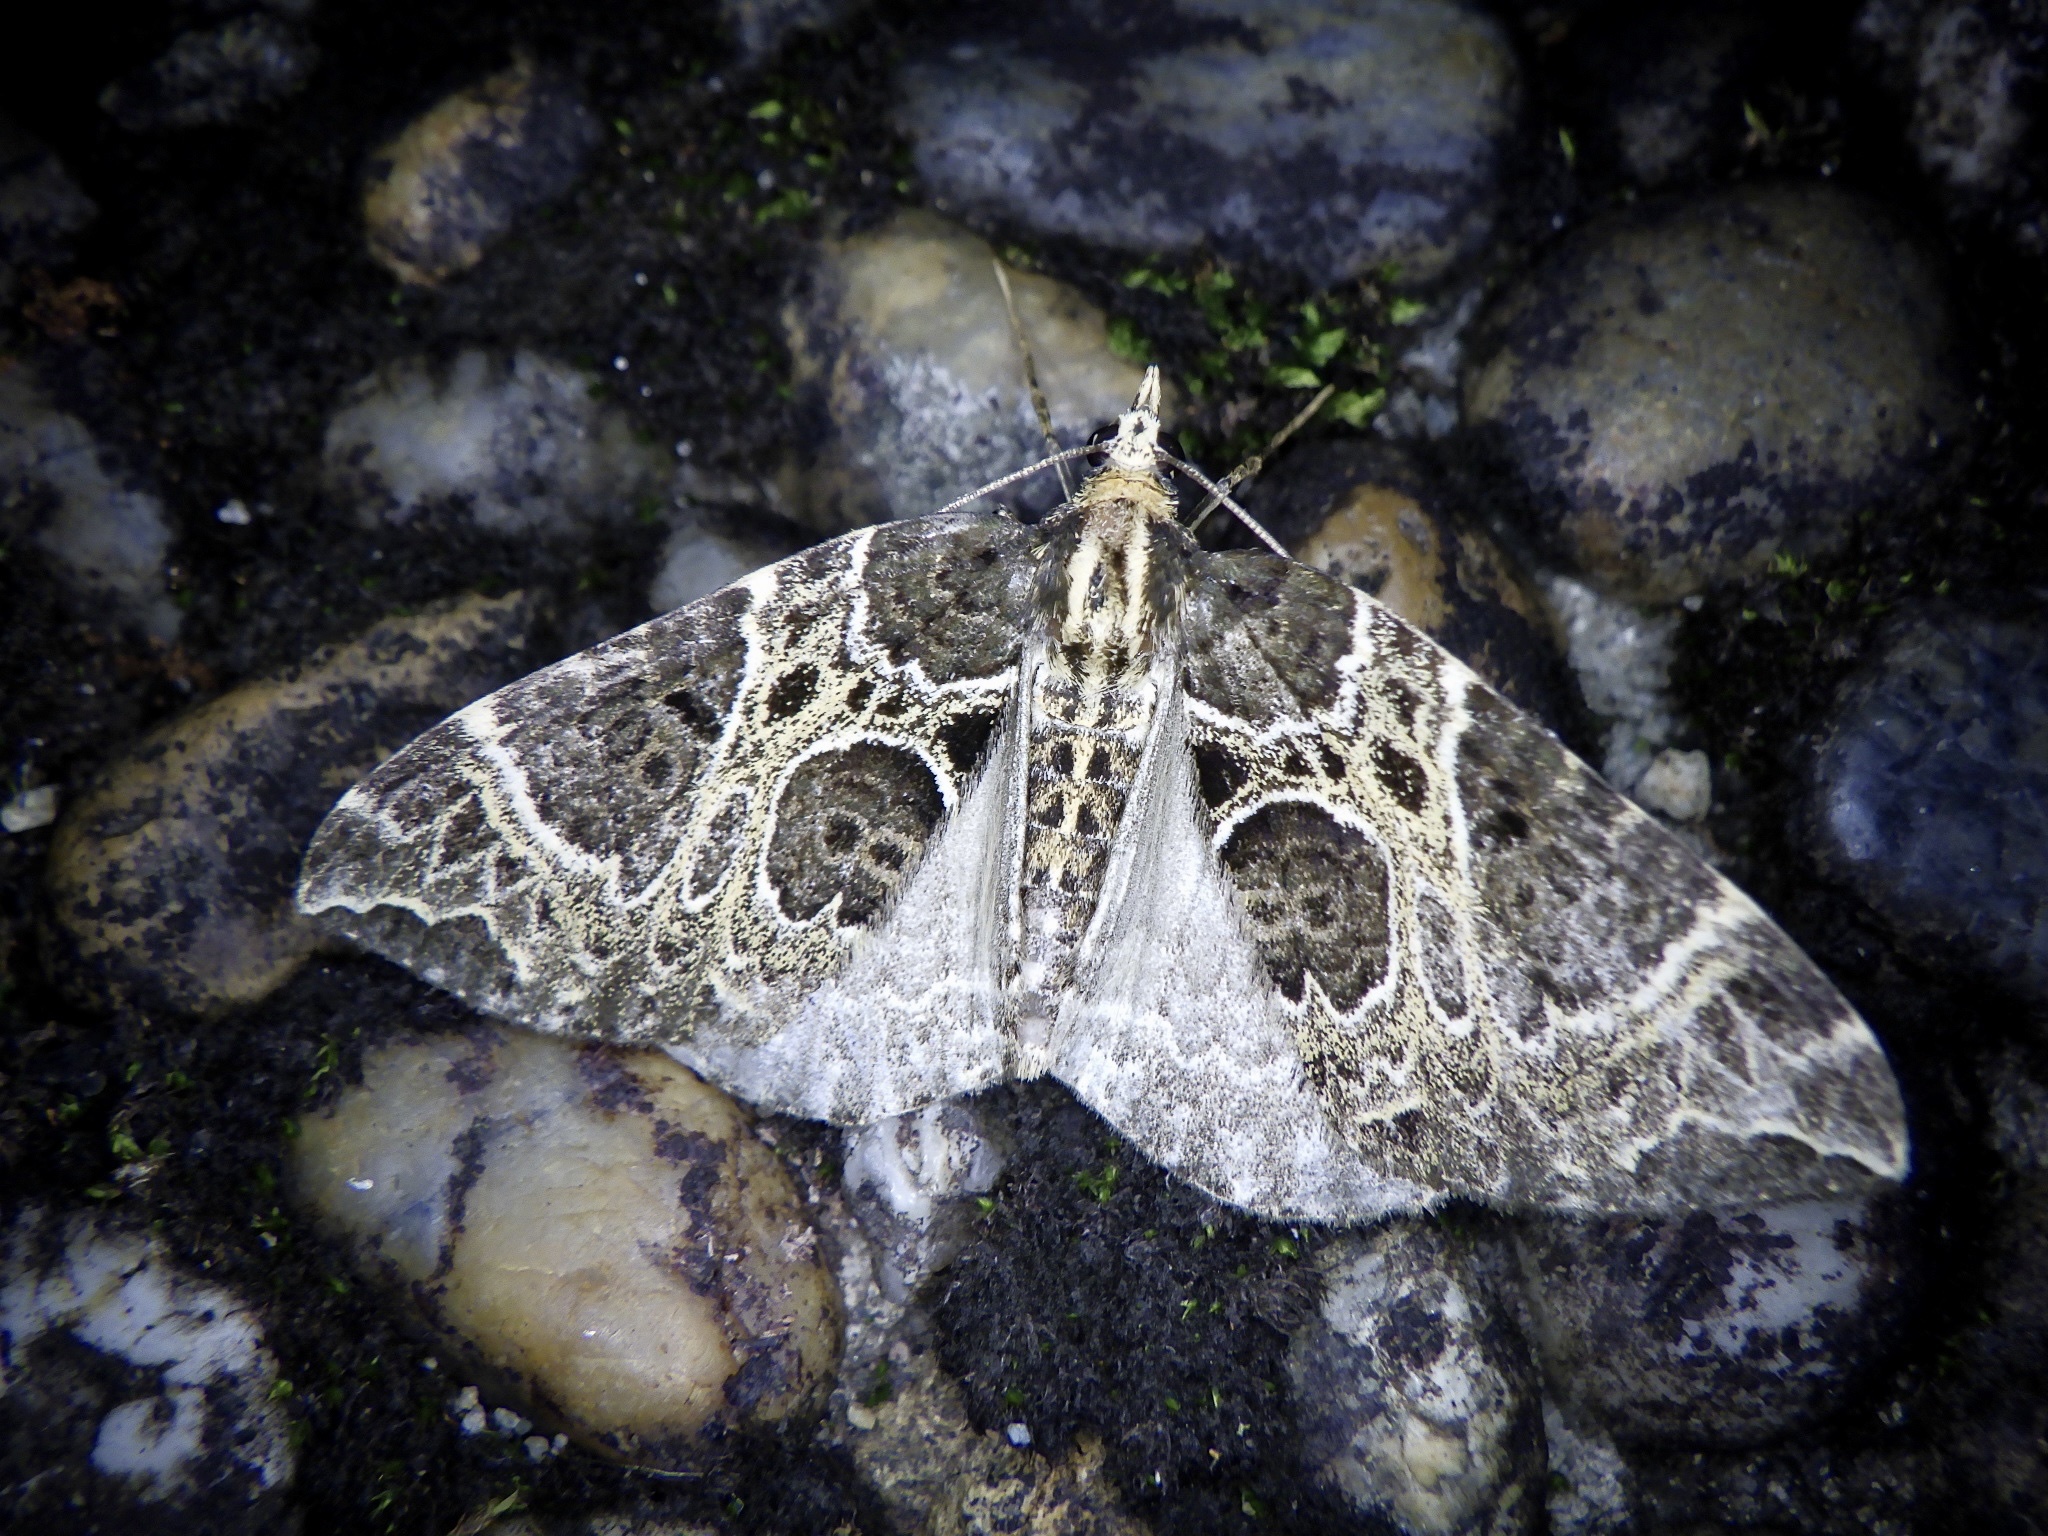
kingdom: Animalia
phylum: Arthropoda
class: Insecta
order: Lepidoptera
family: Geometridae
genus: Eustroma
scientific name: Eustroma melancholica
